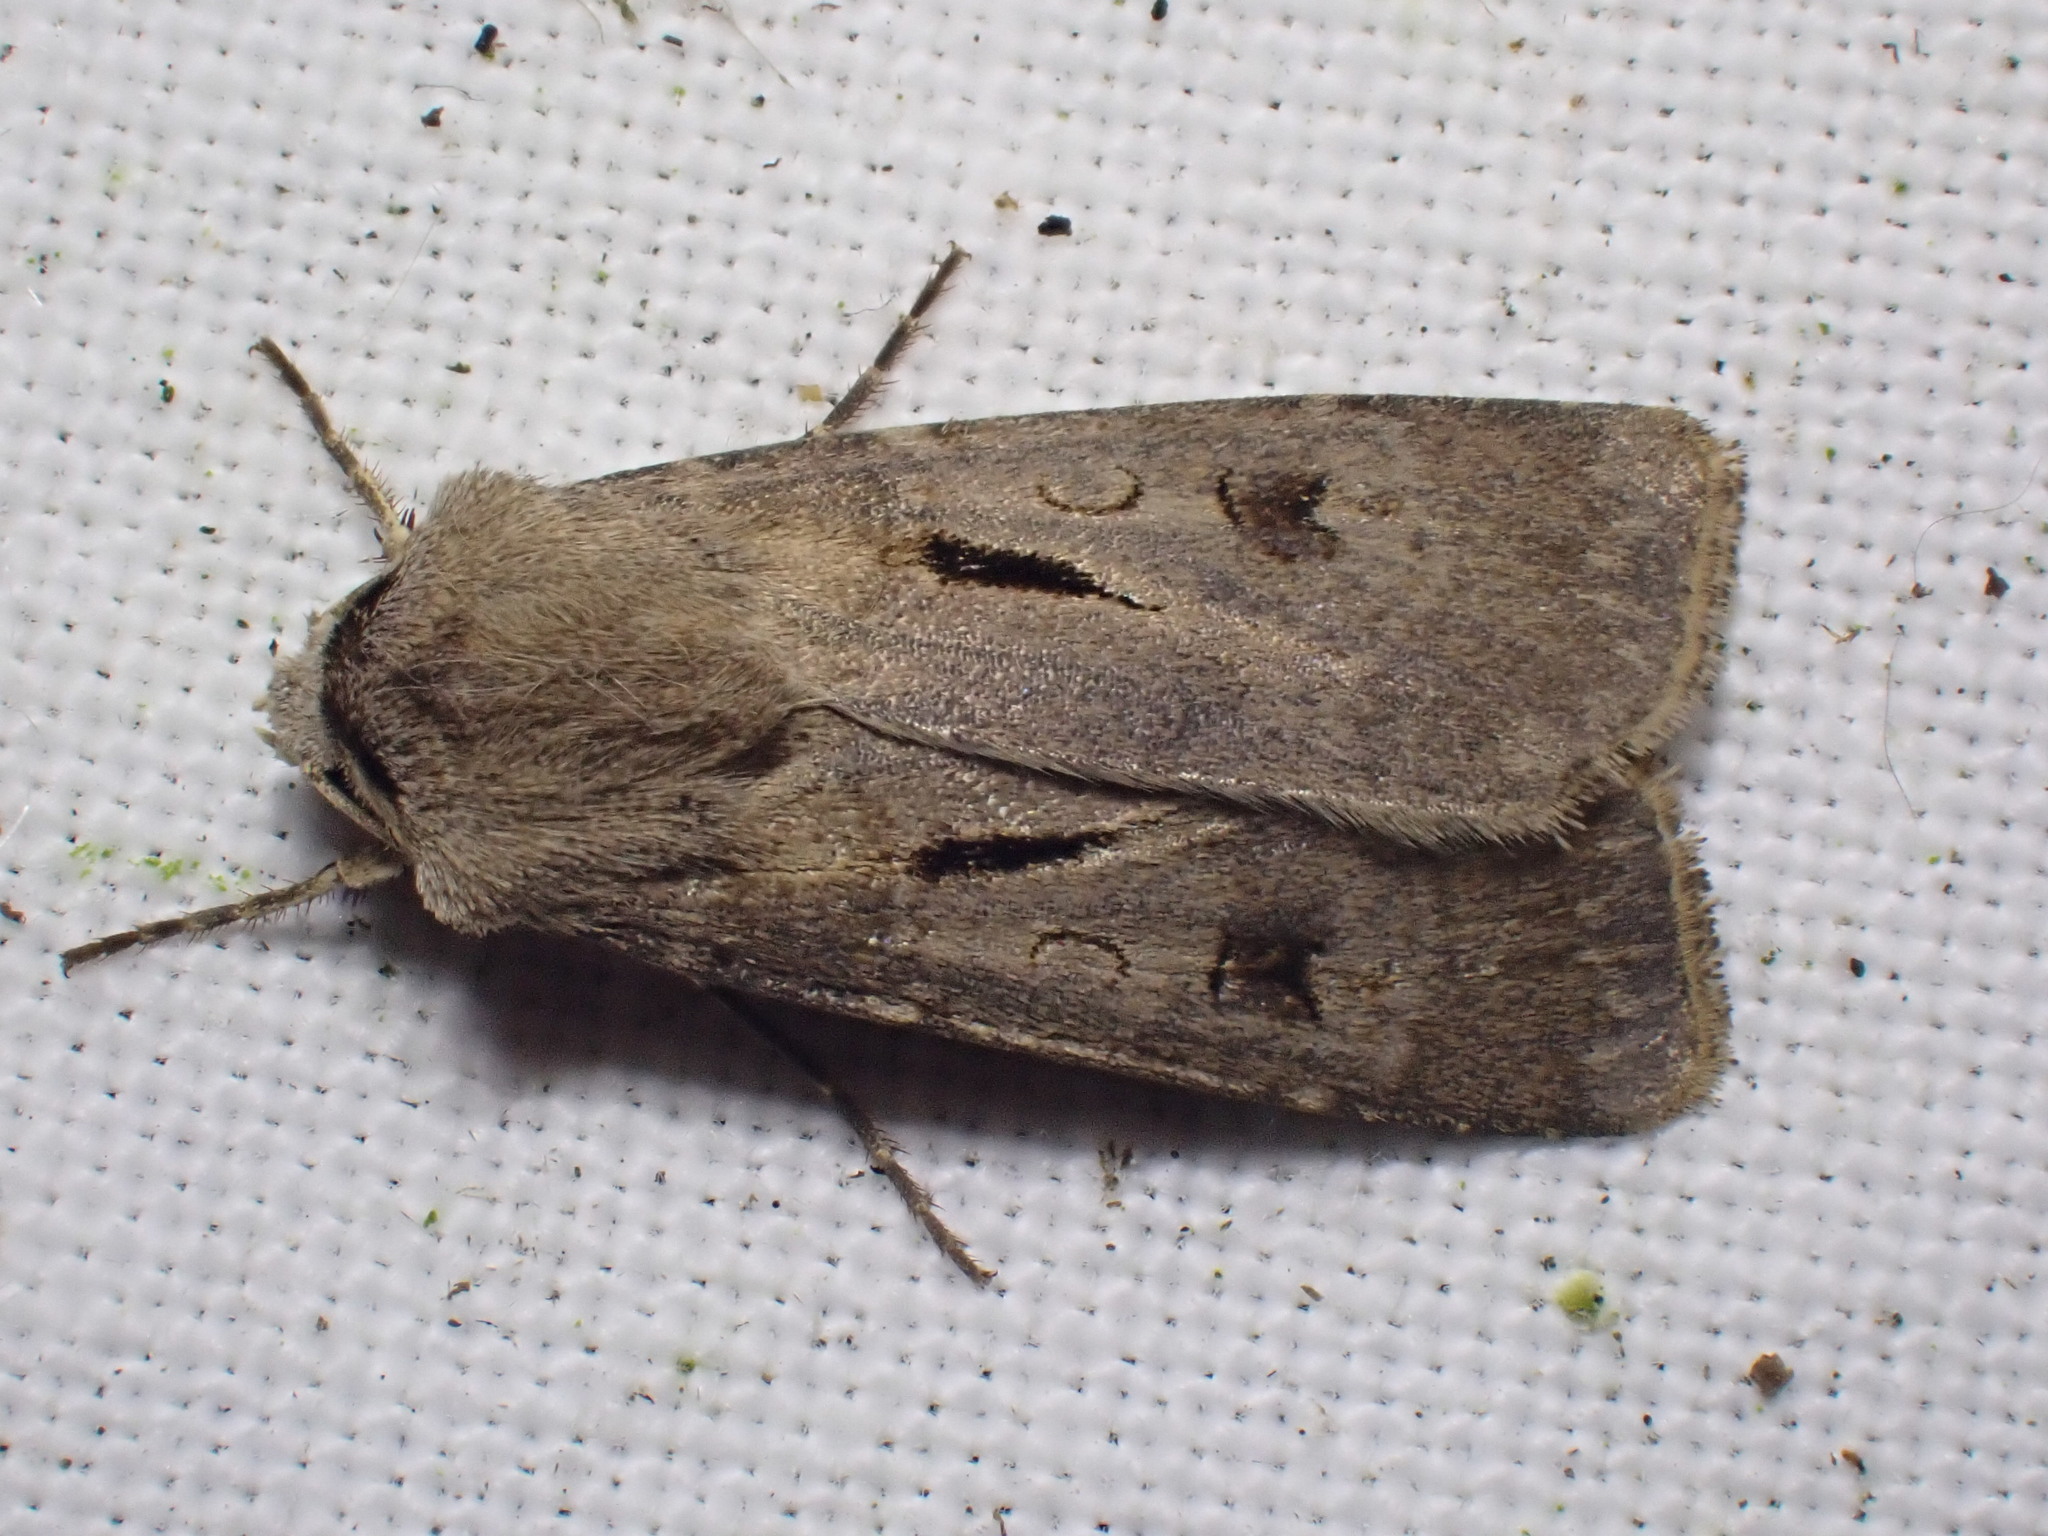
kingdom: Animalia
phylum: Arthropoda
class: Insecta
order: Lepidoptera
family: Noctuidae
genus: Agrotis
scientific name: Agrotis exclamationis
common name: Heart and dart
